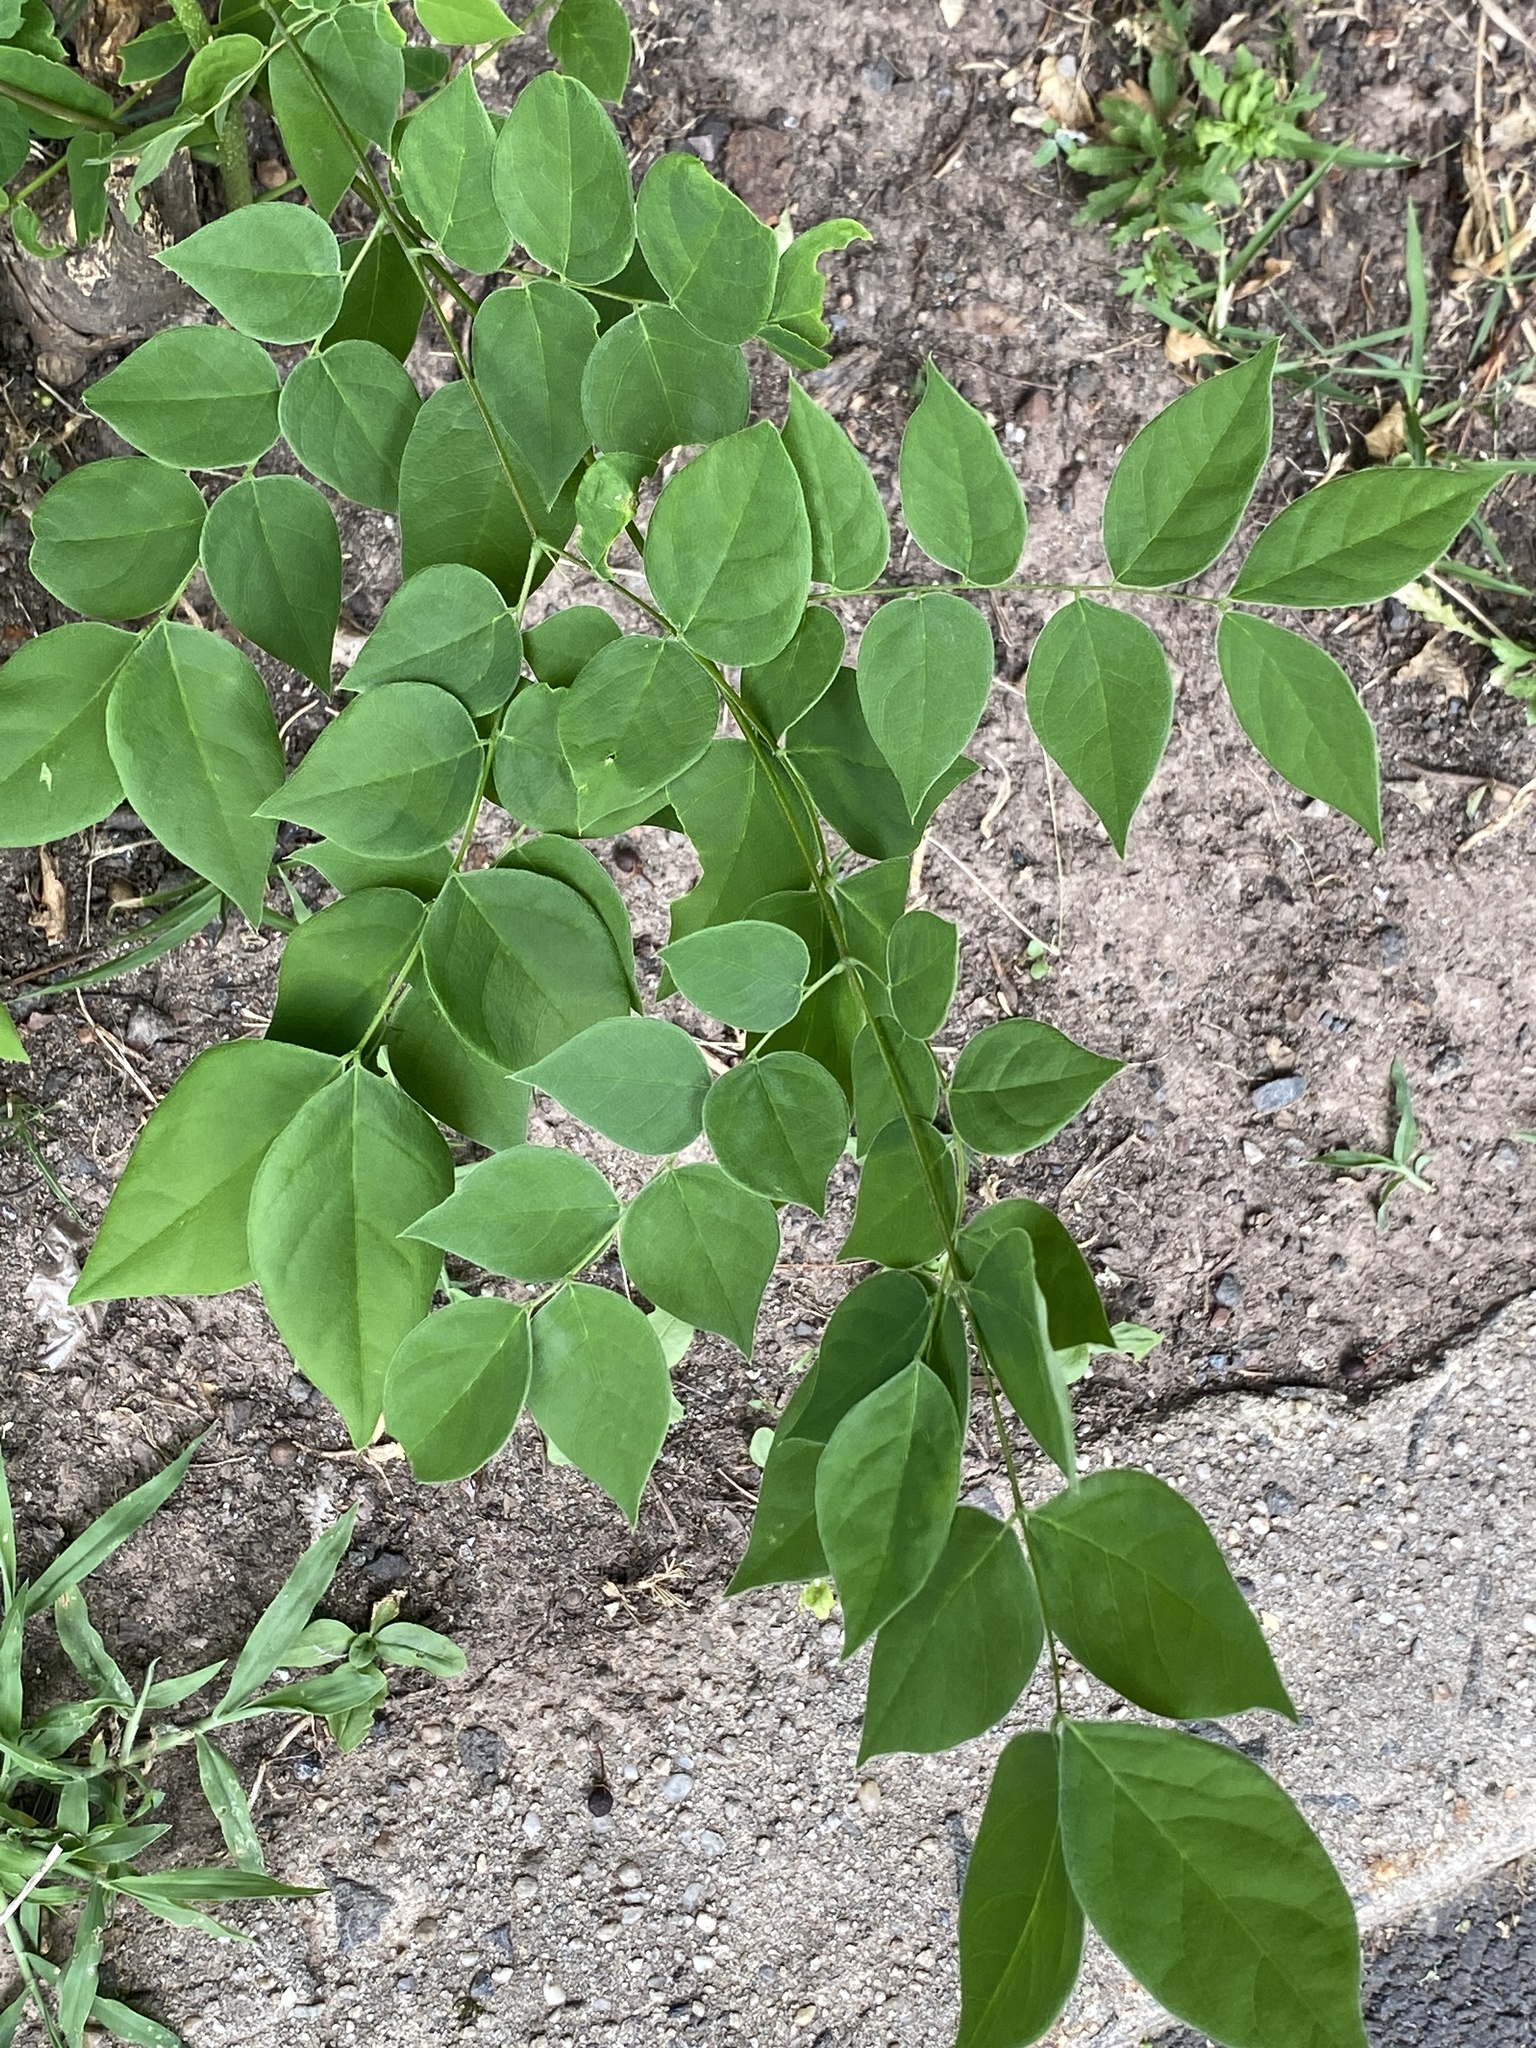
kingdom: Plantae
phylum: Tracheophyta
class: Magnoliopsida
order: Fabales
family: Fabaceae
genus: Gymnocladus
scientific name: Gymnocladus dioicus
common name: Kentucky coffee-tree
